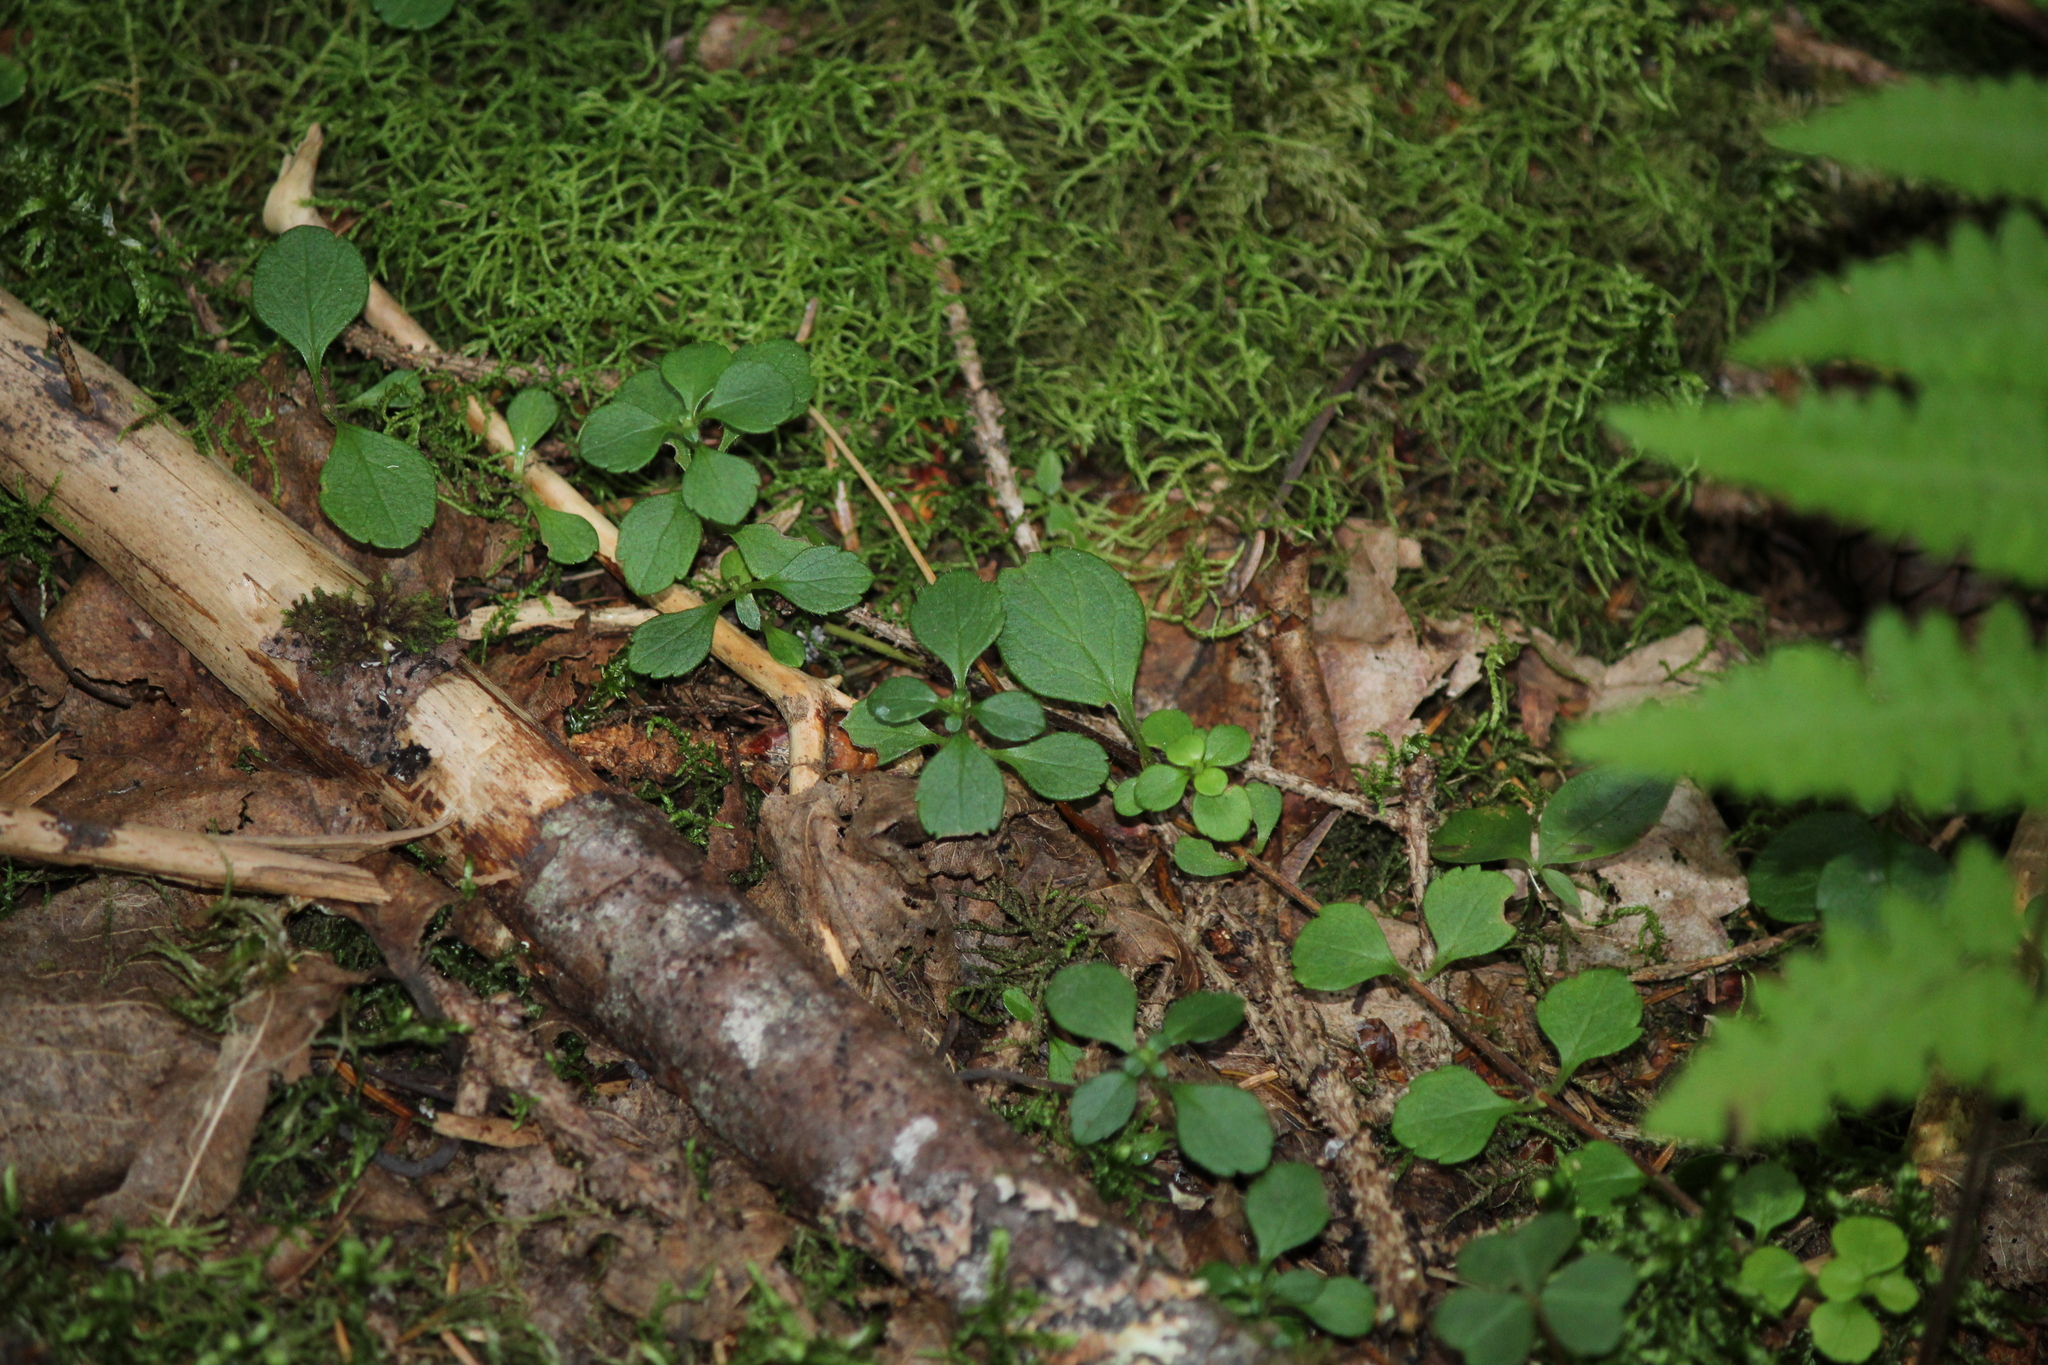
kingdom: Plantae
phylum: Tracheophyta
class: Magnoliopsida
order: Dipsacales
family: Caprifoliaceae
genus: Linnaea
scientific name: Linnaea borealis
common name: Twinflower
